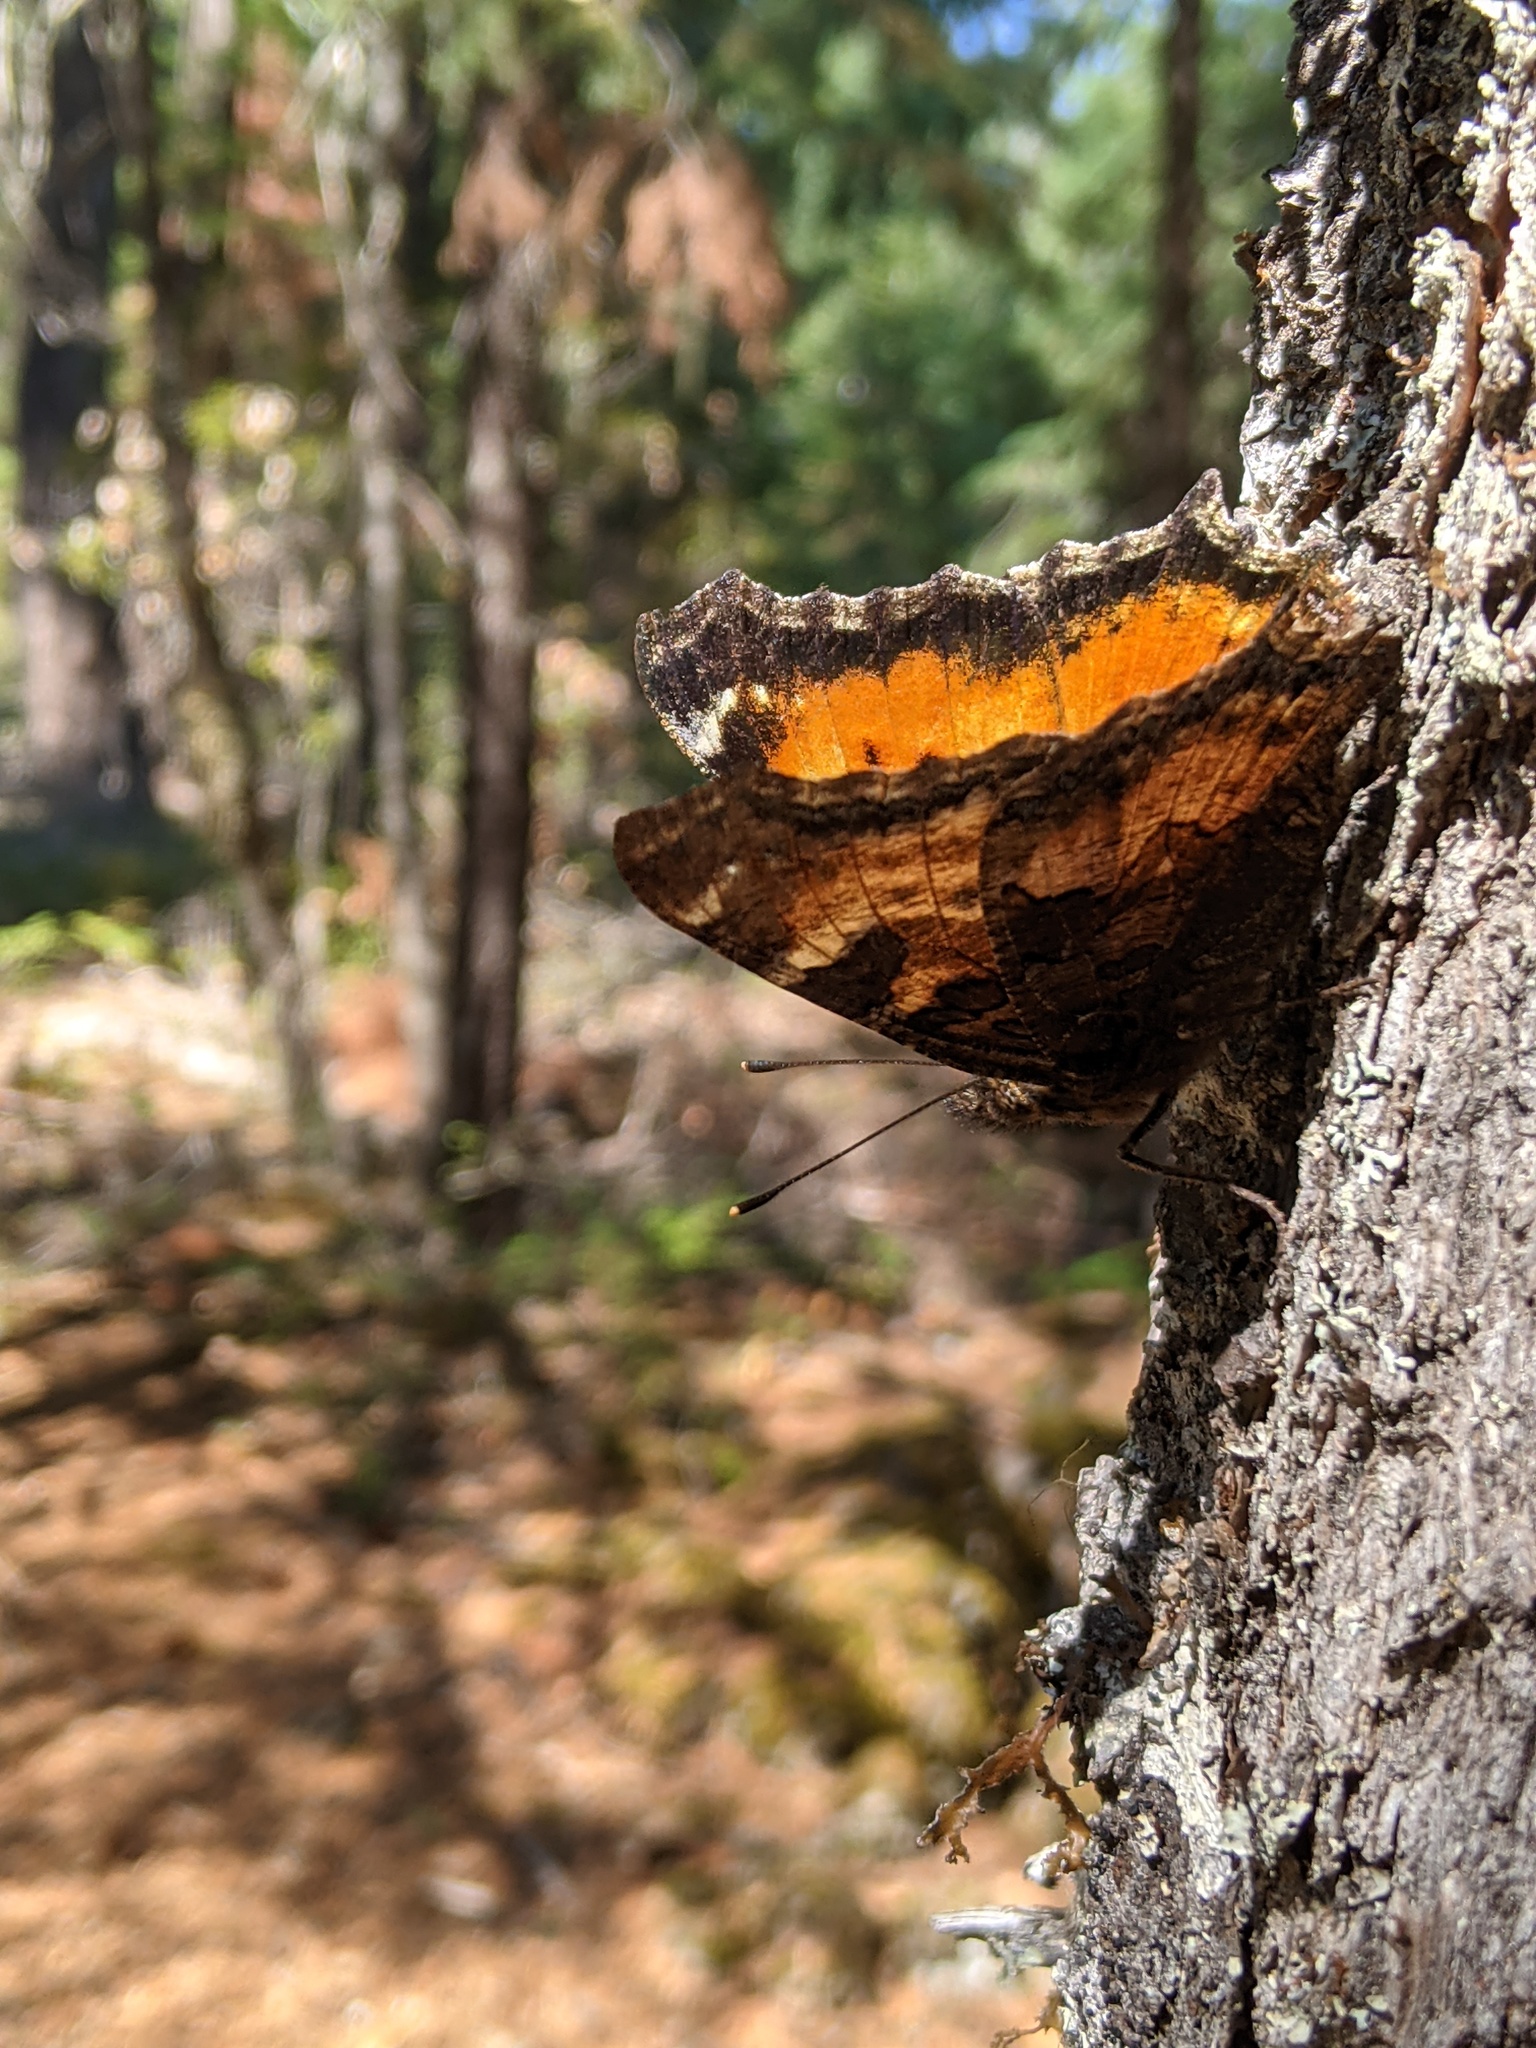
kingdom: Animalia
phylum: Arthropoda
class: Insecta
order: Lepidoptera
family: Nymphalidae
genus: Nymphalis
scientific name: Nymphalis californica
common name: California tortoiseshell
